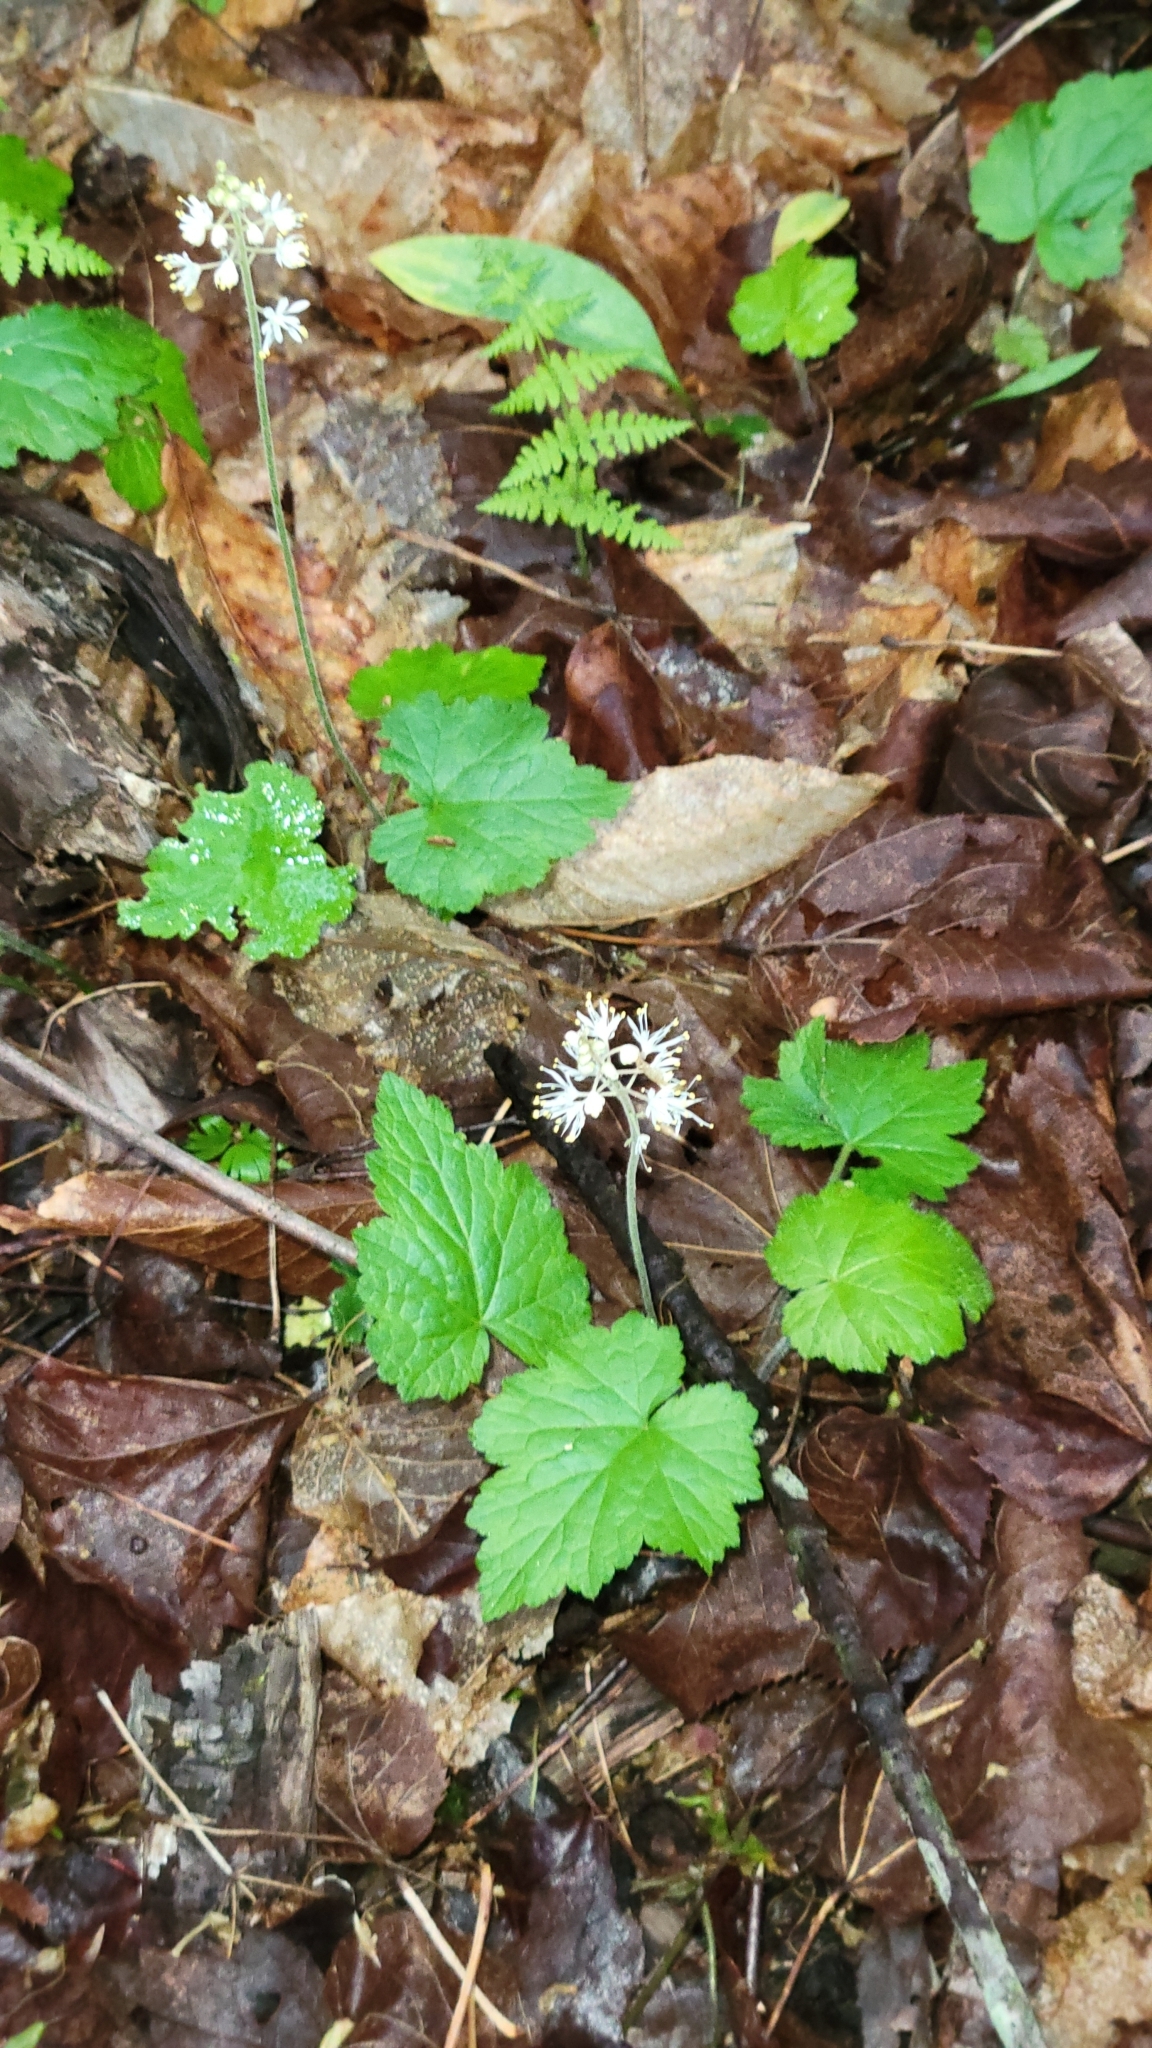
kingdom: Plantae
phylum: Tracheophyta
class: Magnoliopsida
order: Saxifragales
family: Saxifragaceae
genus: Tiarella
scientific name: Tiarella stolonifera
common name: Stoloniferous foamflower
